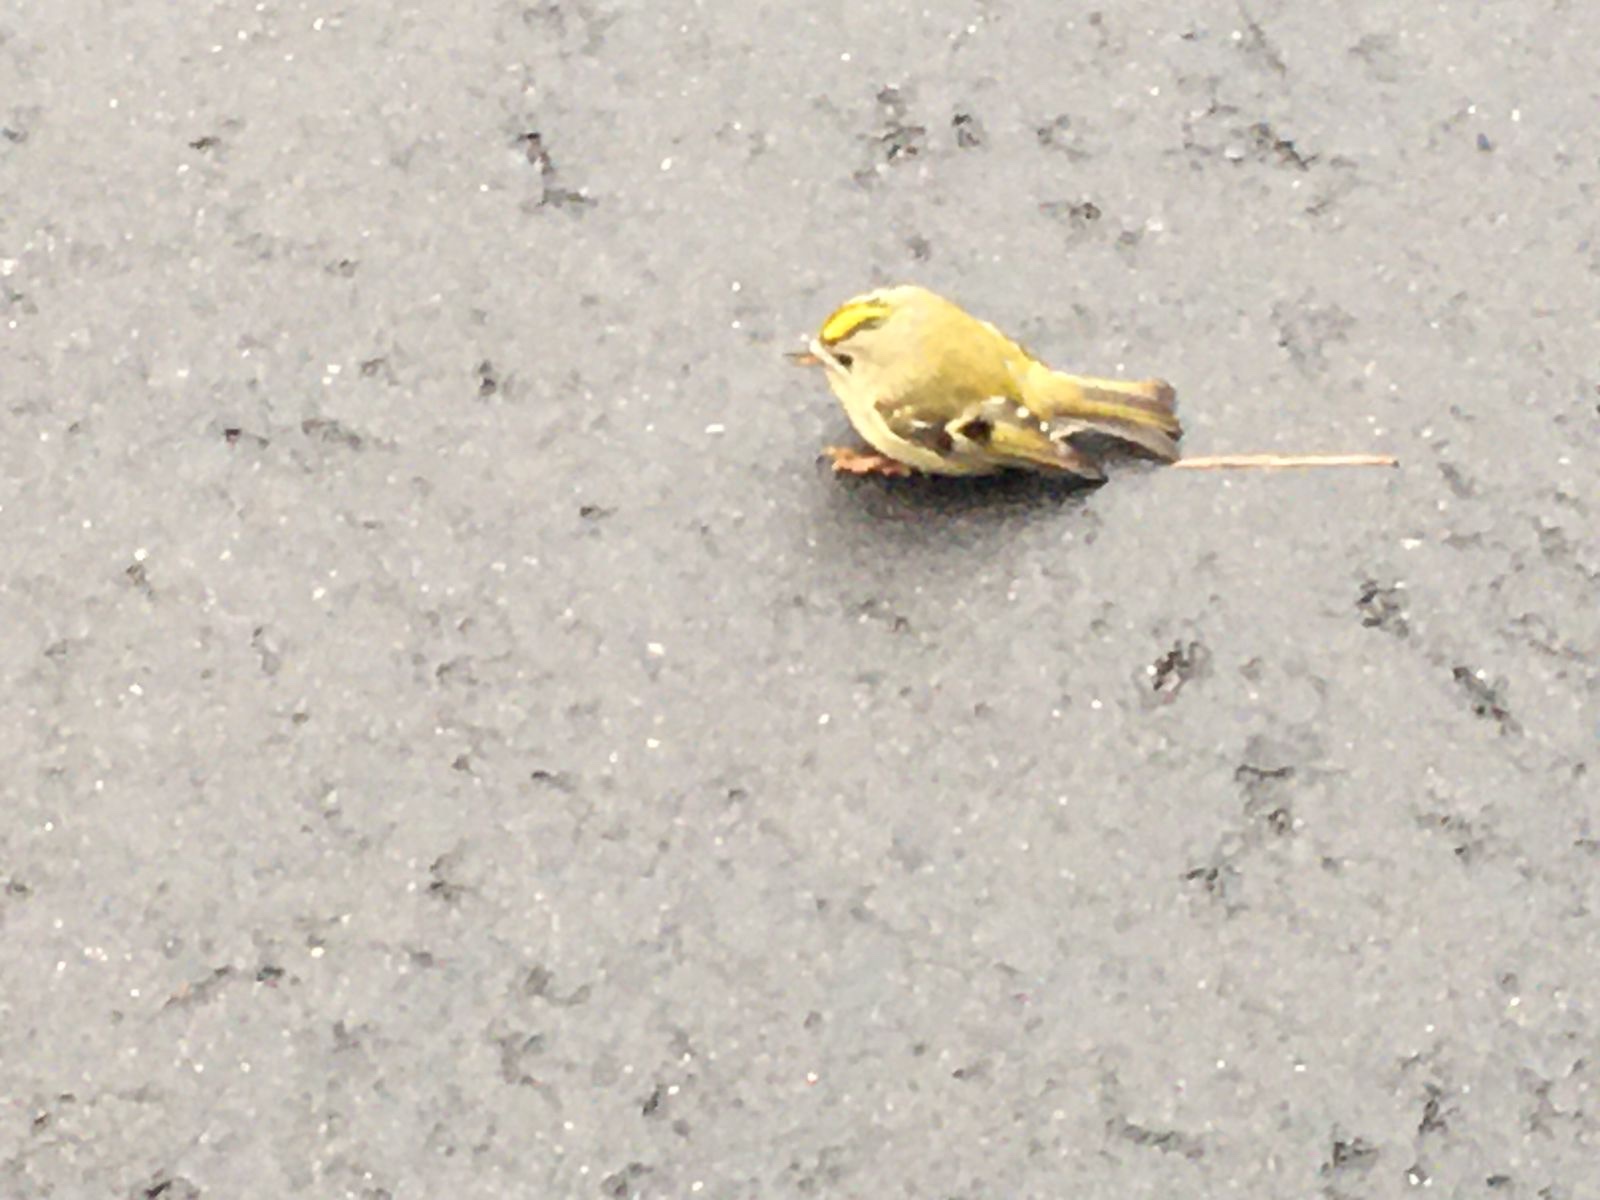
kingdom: Animalia
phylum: Chordata
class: Aves
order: Passeriformes
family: Regulidae
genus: Regulus
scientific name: Regulus regulus
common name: Goldcrest
